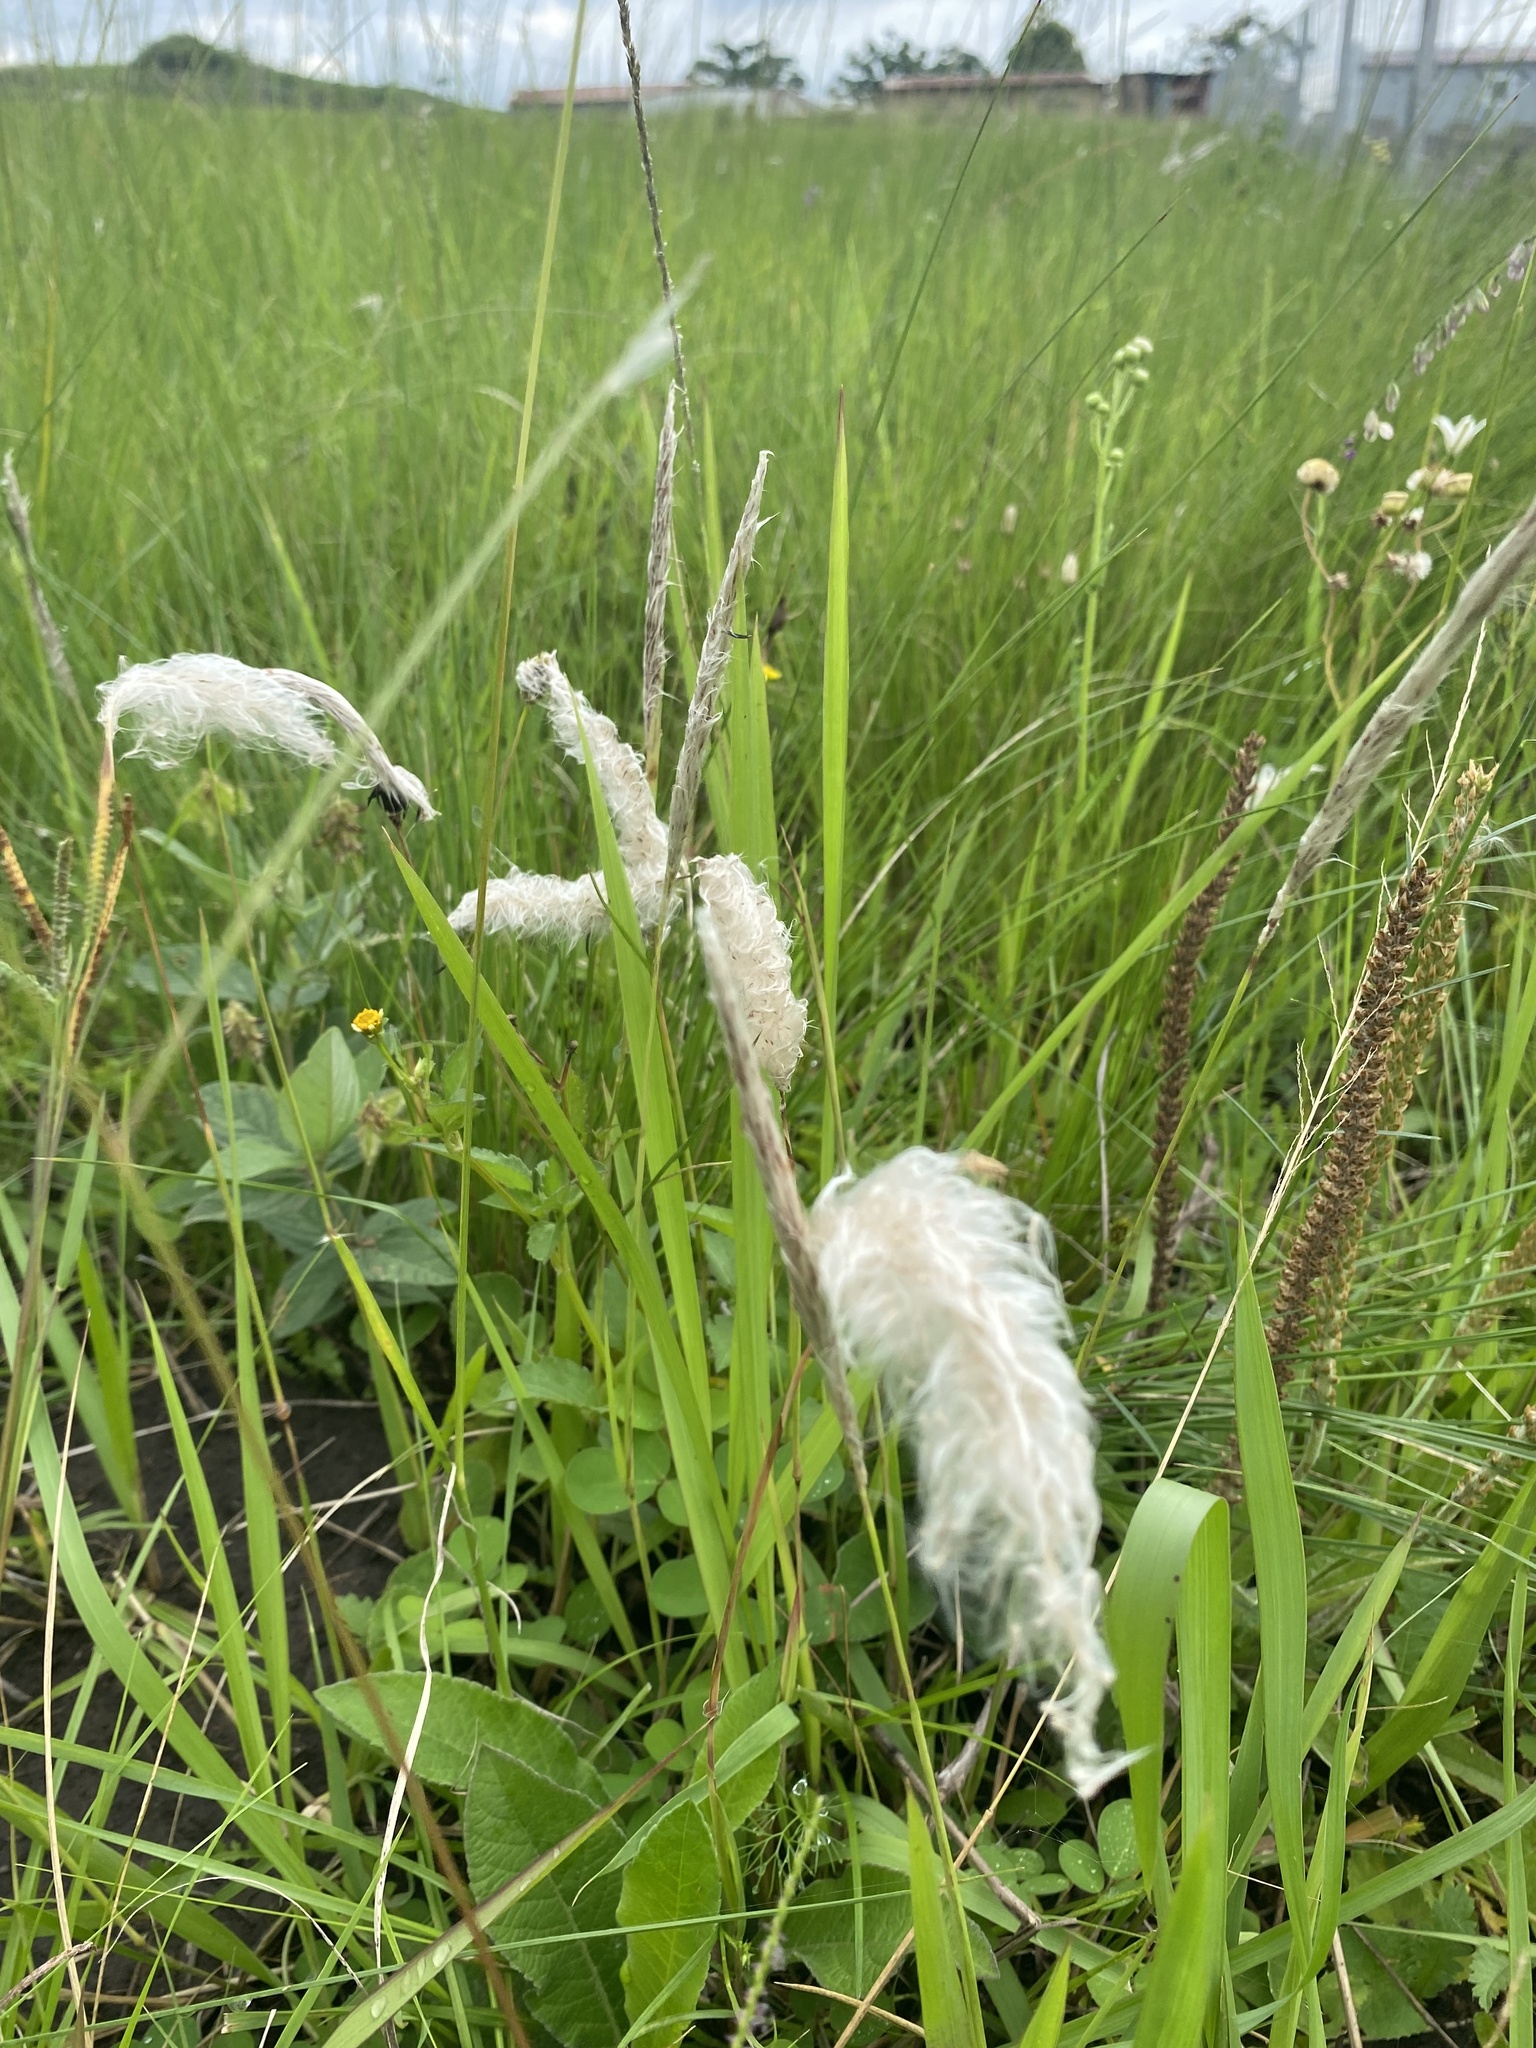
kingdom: Plantae
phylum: Tracheophyta
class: Liliopsida
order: Poales
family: Poaceae
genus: Imperata
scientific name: Imperata cylindrica
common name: Cogongrass
